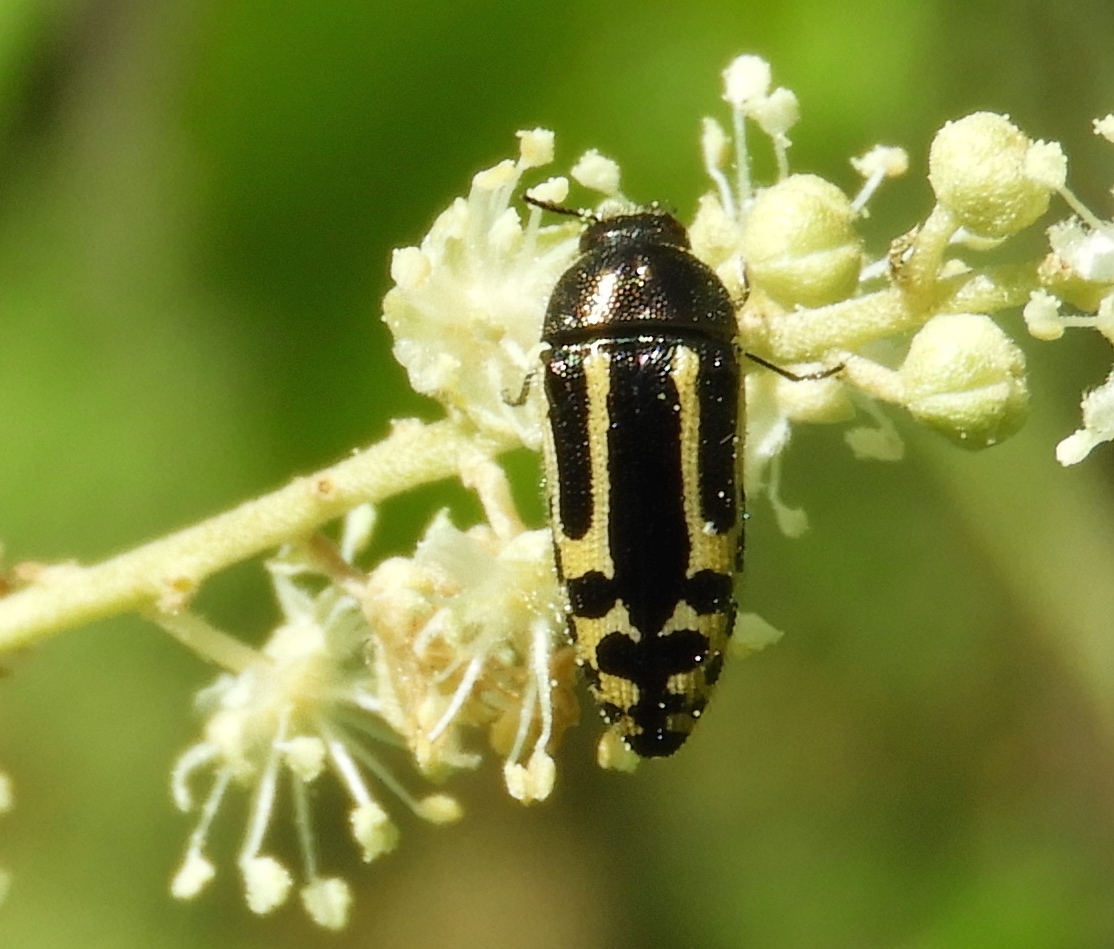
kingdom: Animalia
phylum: Arthropoda
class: Insecta
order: Coleoptera
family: Buprestidae
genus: Acmaeodera
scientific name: Acmaeodera scalaris
